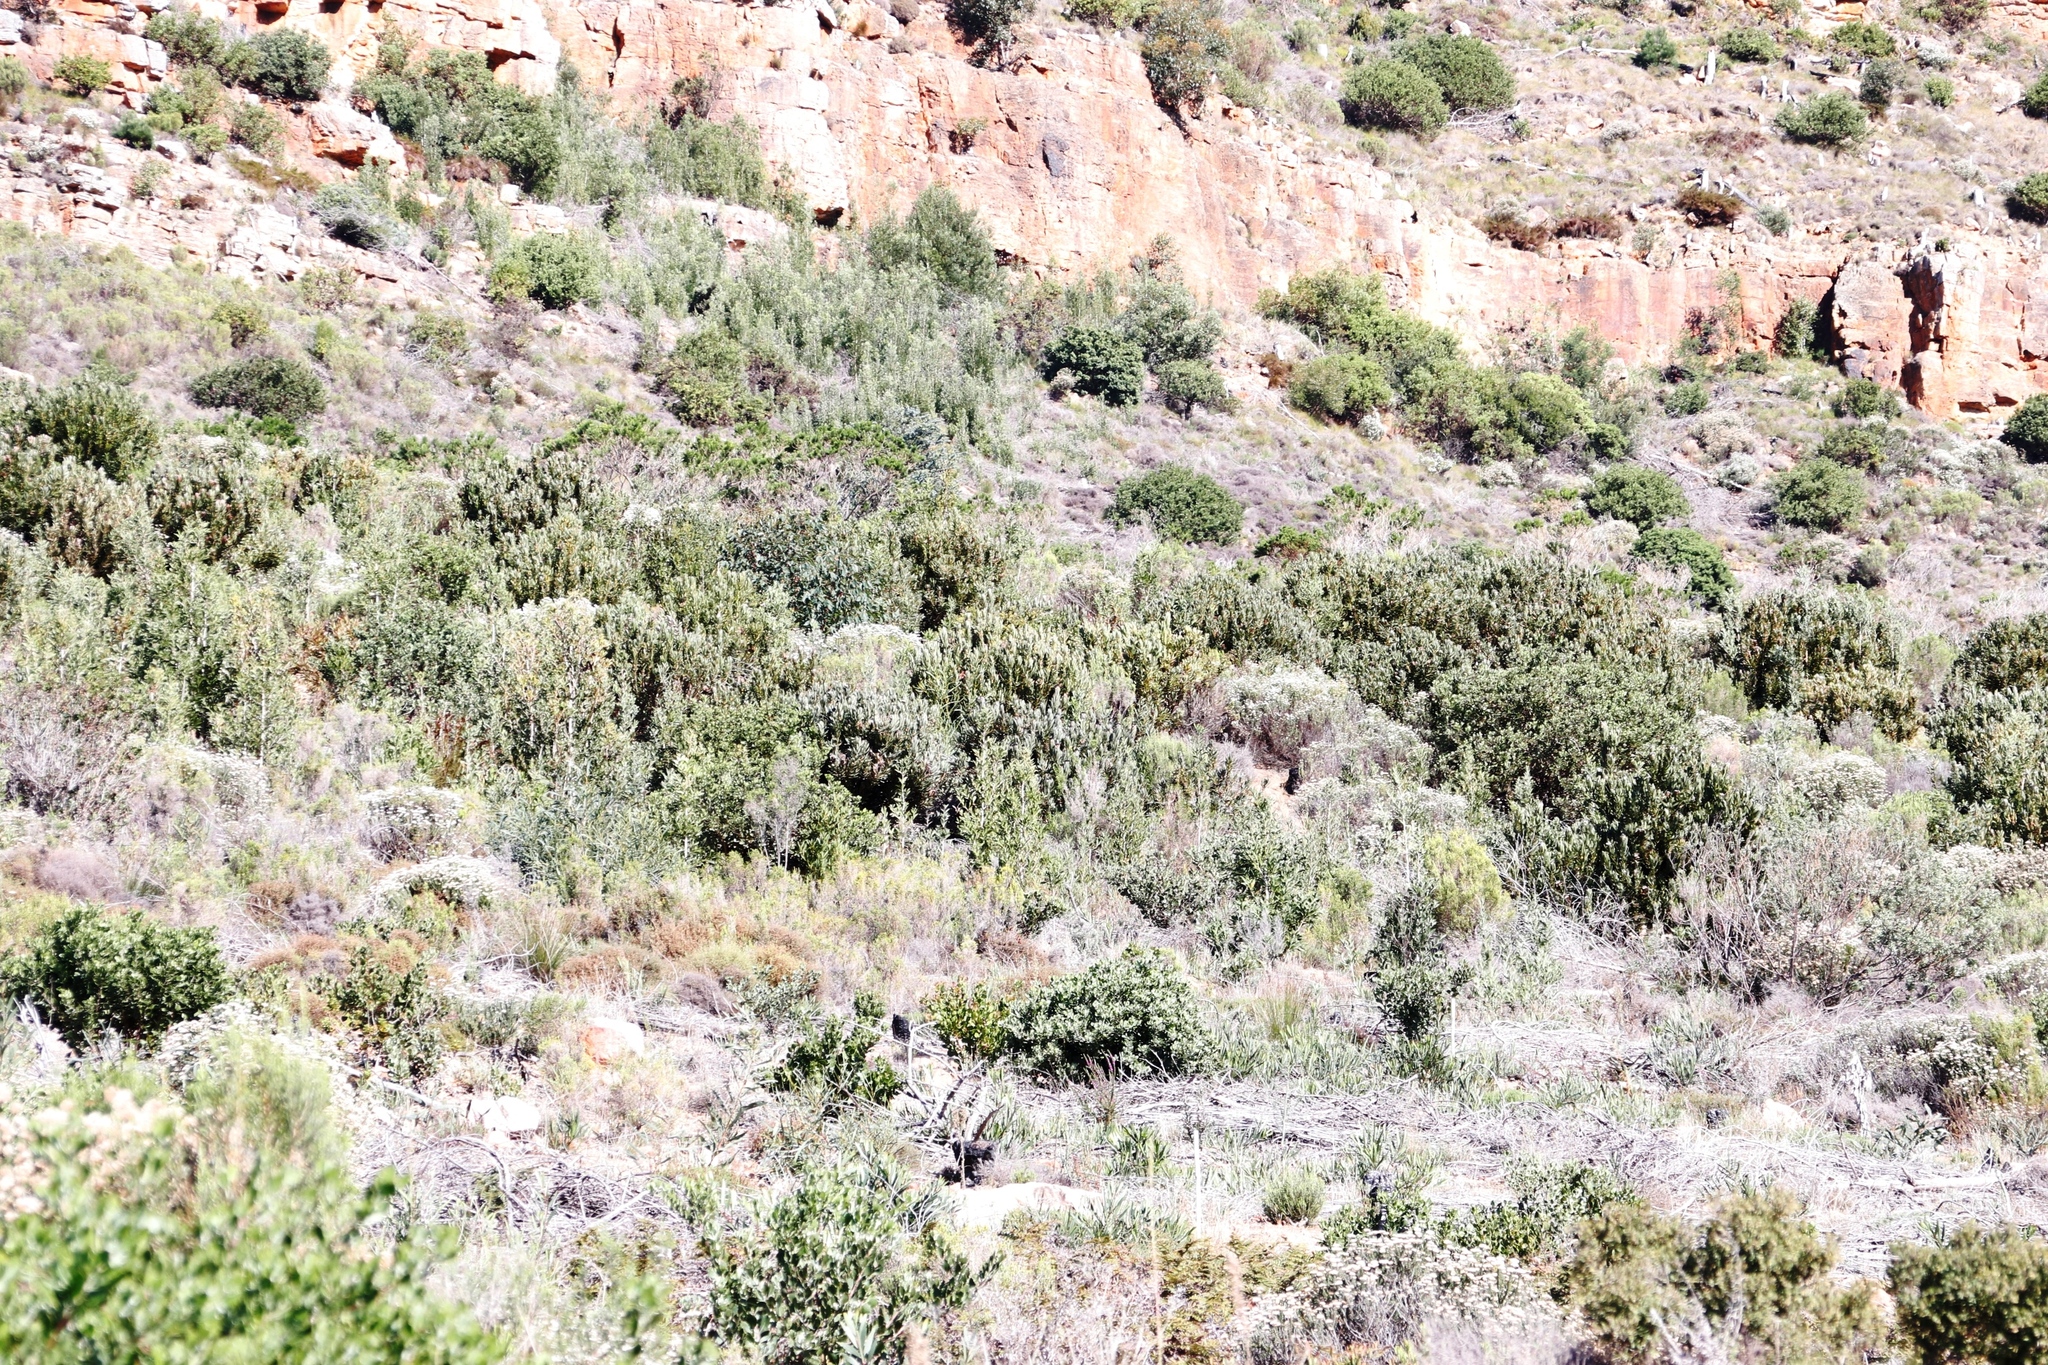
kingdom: Plantae
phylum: Tracheophyta
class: Magnoliopsida
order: Proteales
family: Proteaceae
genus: Protea
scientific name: Protea lepidocarpodendron
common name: Black-bearded protea
